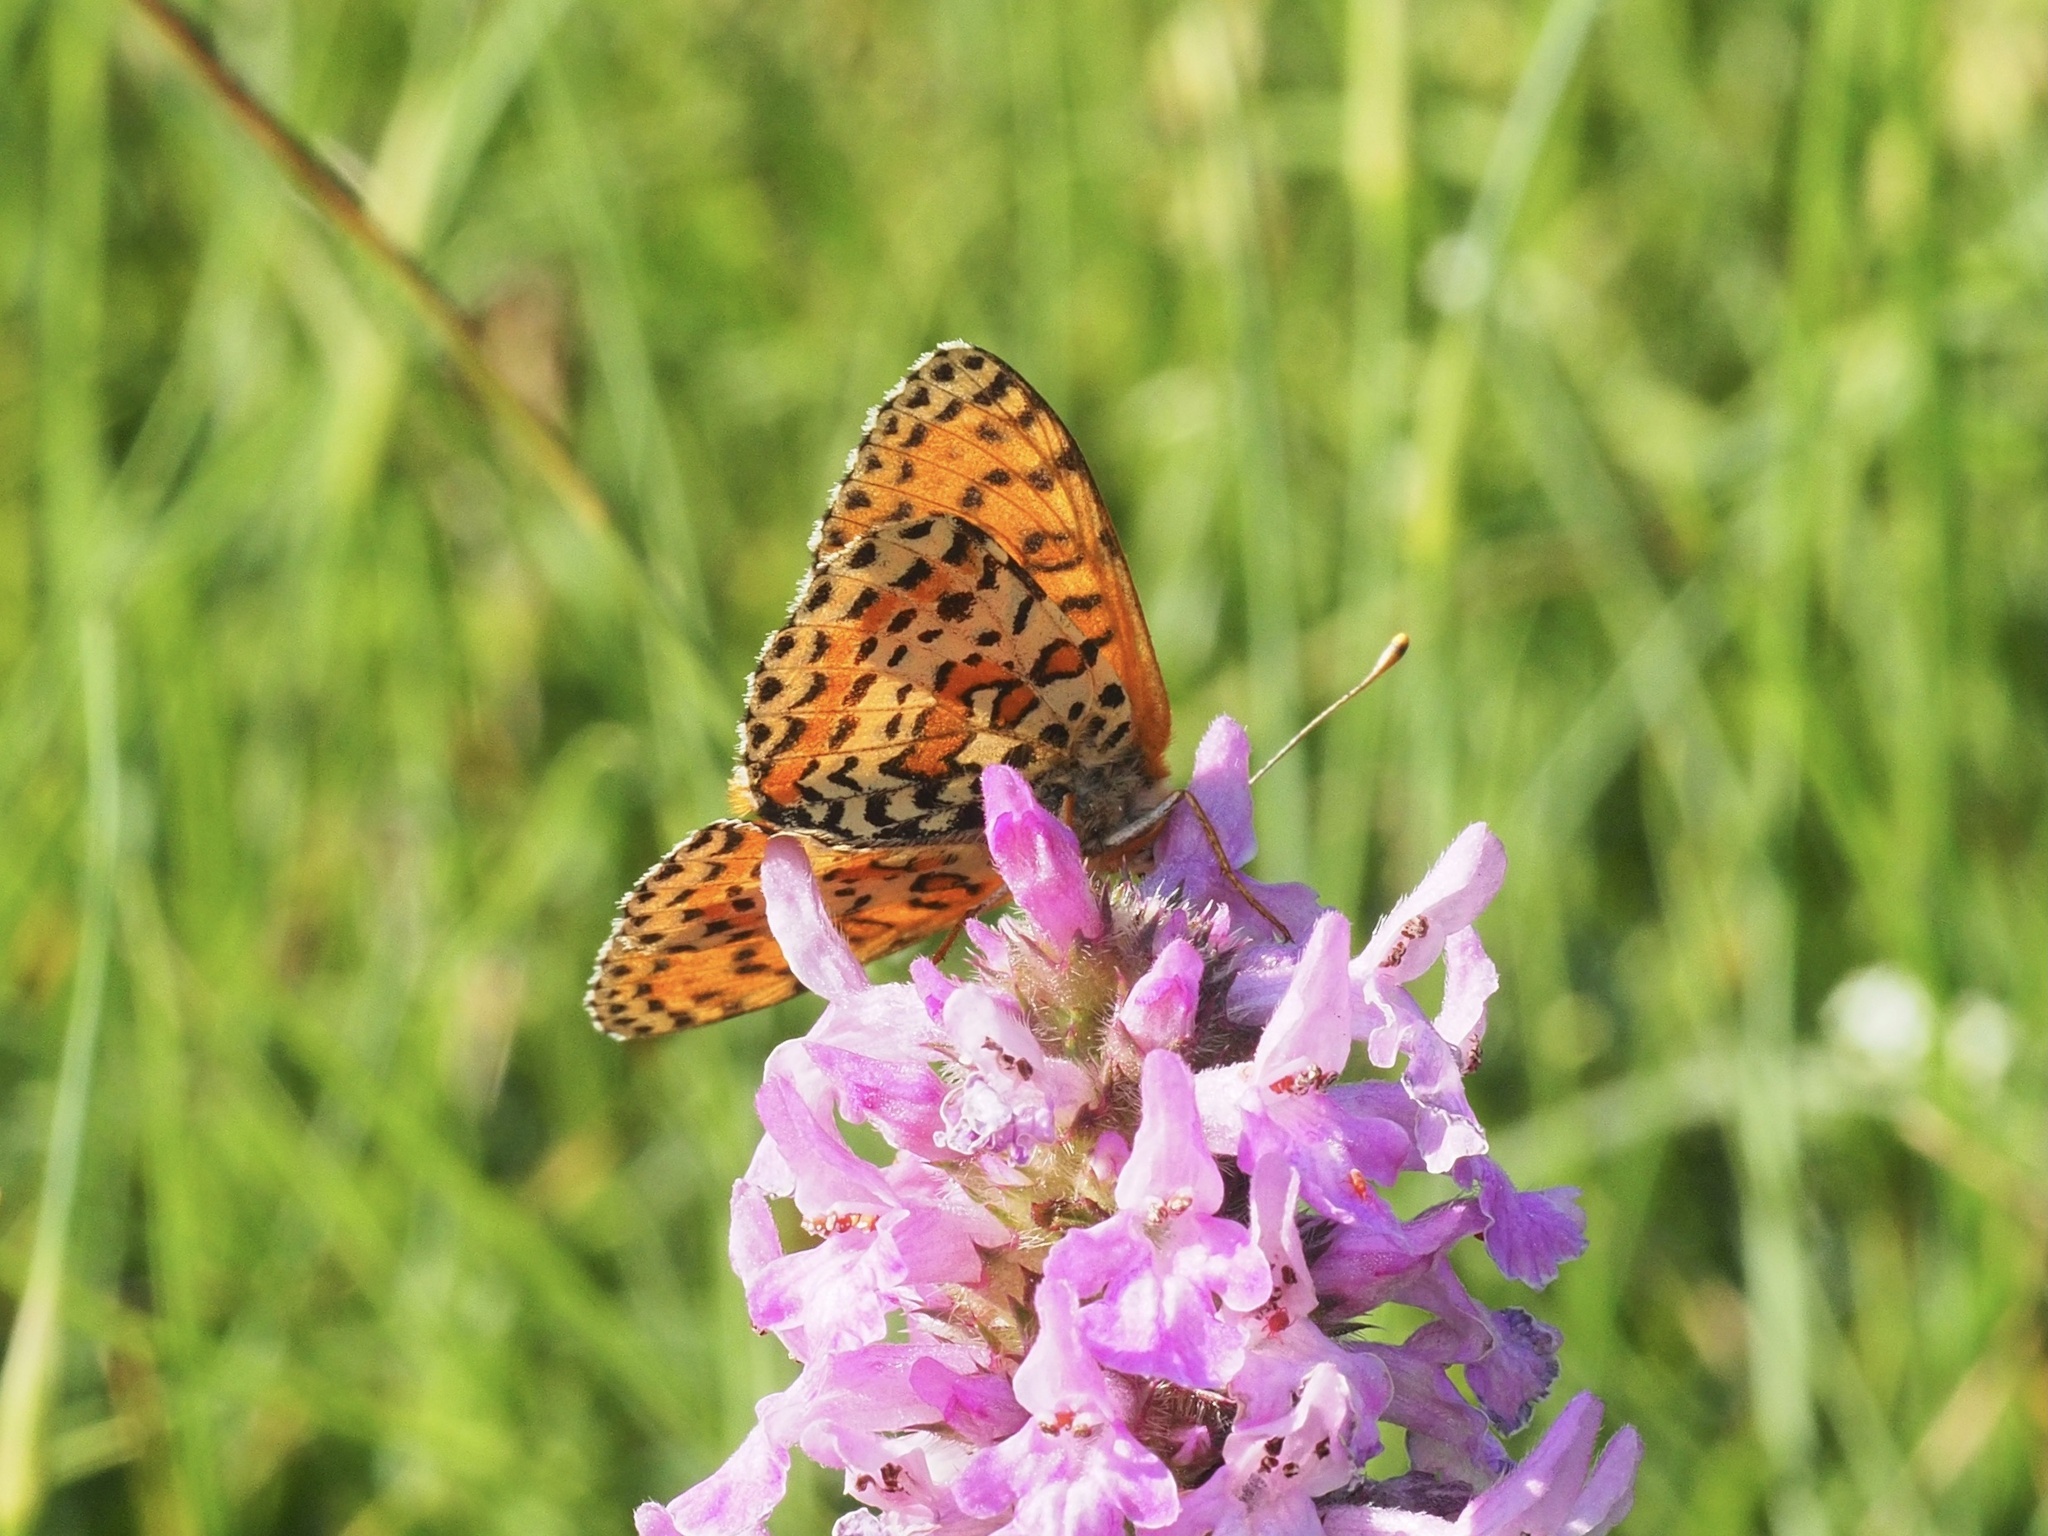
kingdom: Animalia
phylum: Arthropoda
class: Insecta
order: Lepidoptera
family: Nymphalidae
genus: Melitaea
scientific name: Melitaea didyma
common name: Spotted fritillary
